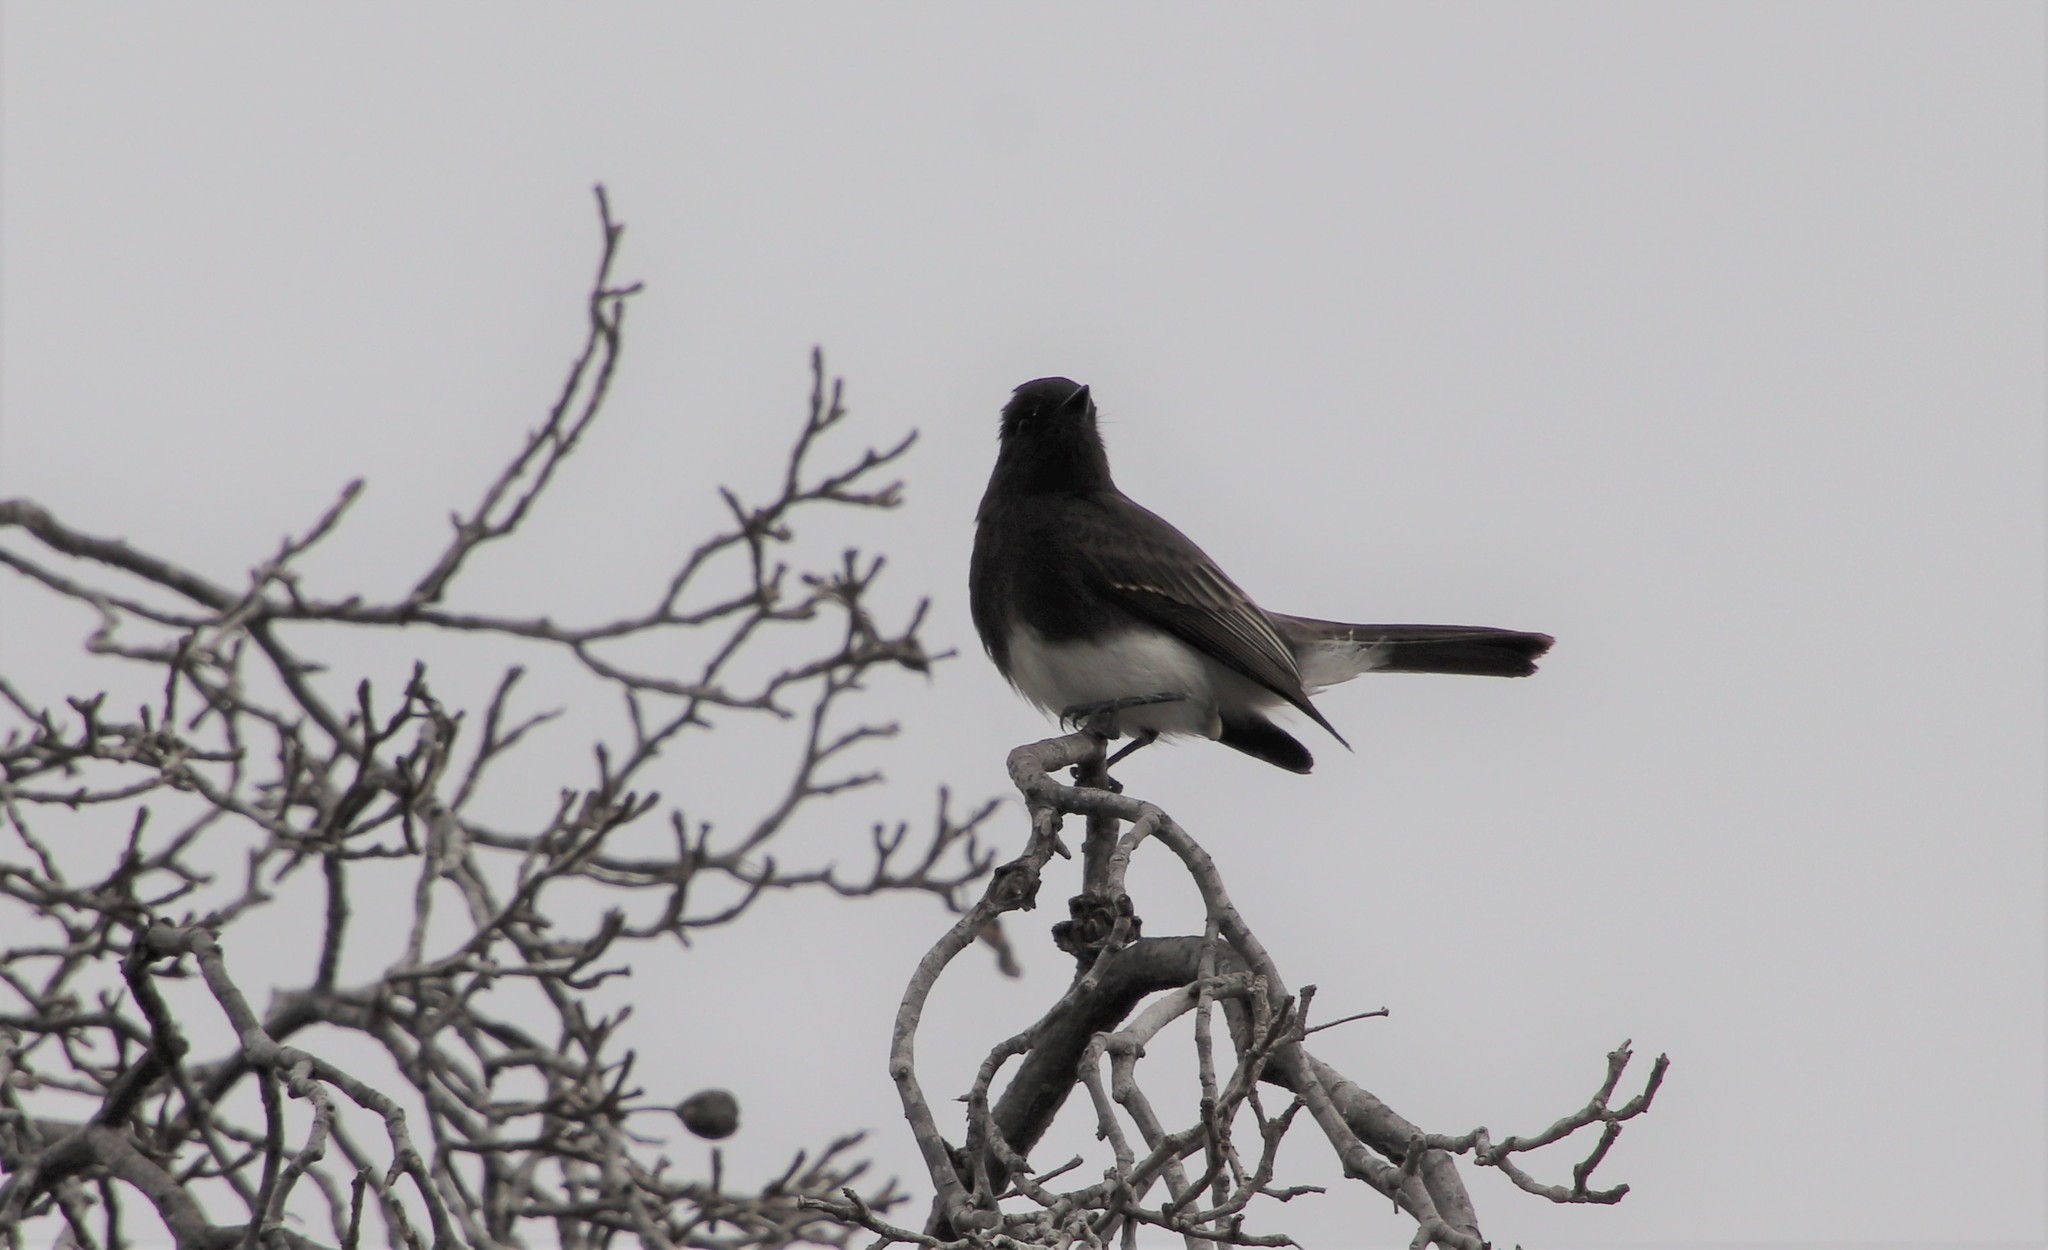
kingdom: Animalia
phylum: Chordata
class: Aves
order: Passeriformes
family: Tyrannidae
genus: Sayornis
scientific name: Sayornis nigricans
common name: Black phoebe
